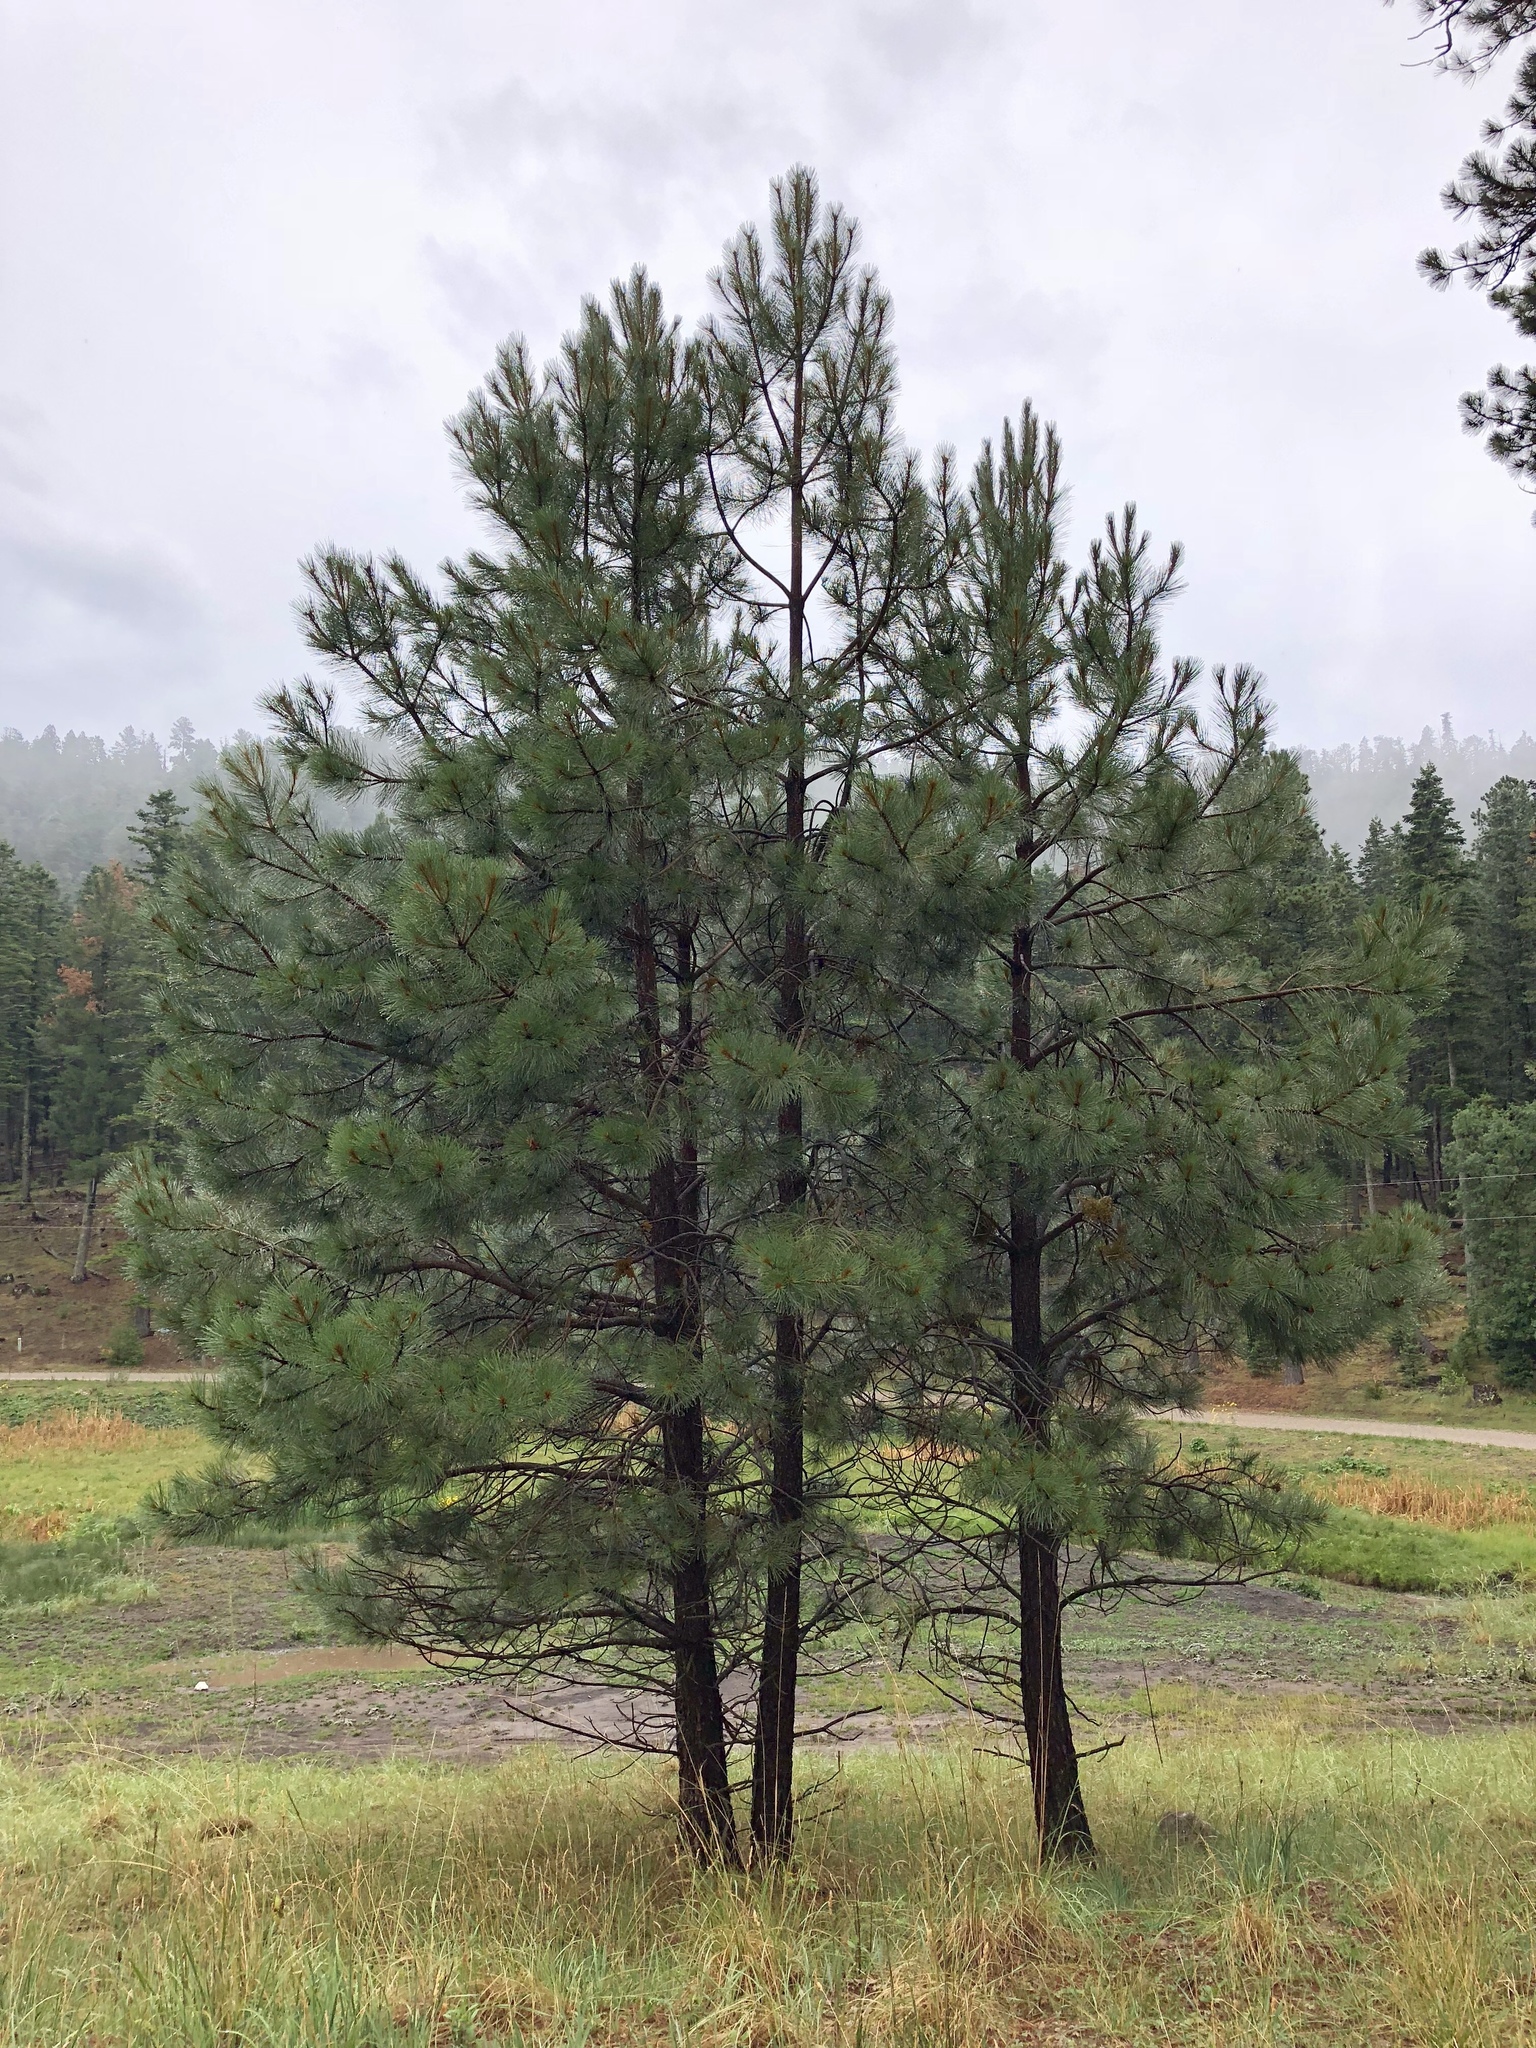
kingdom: Plantae
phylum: Tracheophyta
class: Pinopsida
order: Pinales
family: Pinaceae
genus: Pinus
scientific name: Pinus ponderosa
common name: Western yellow-pine
